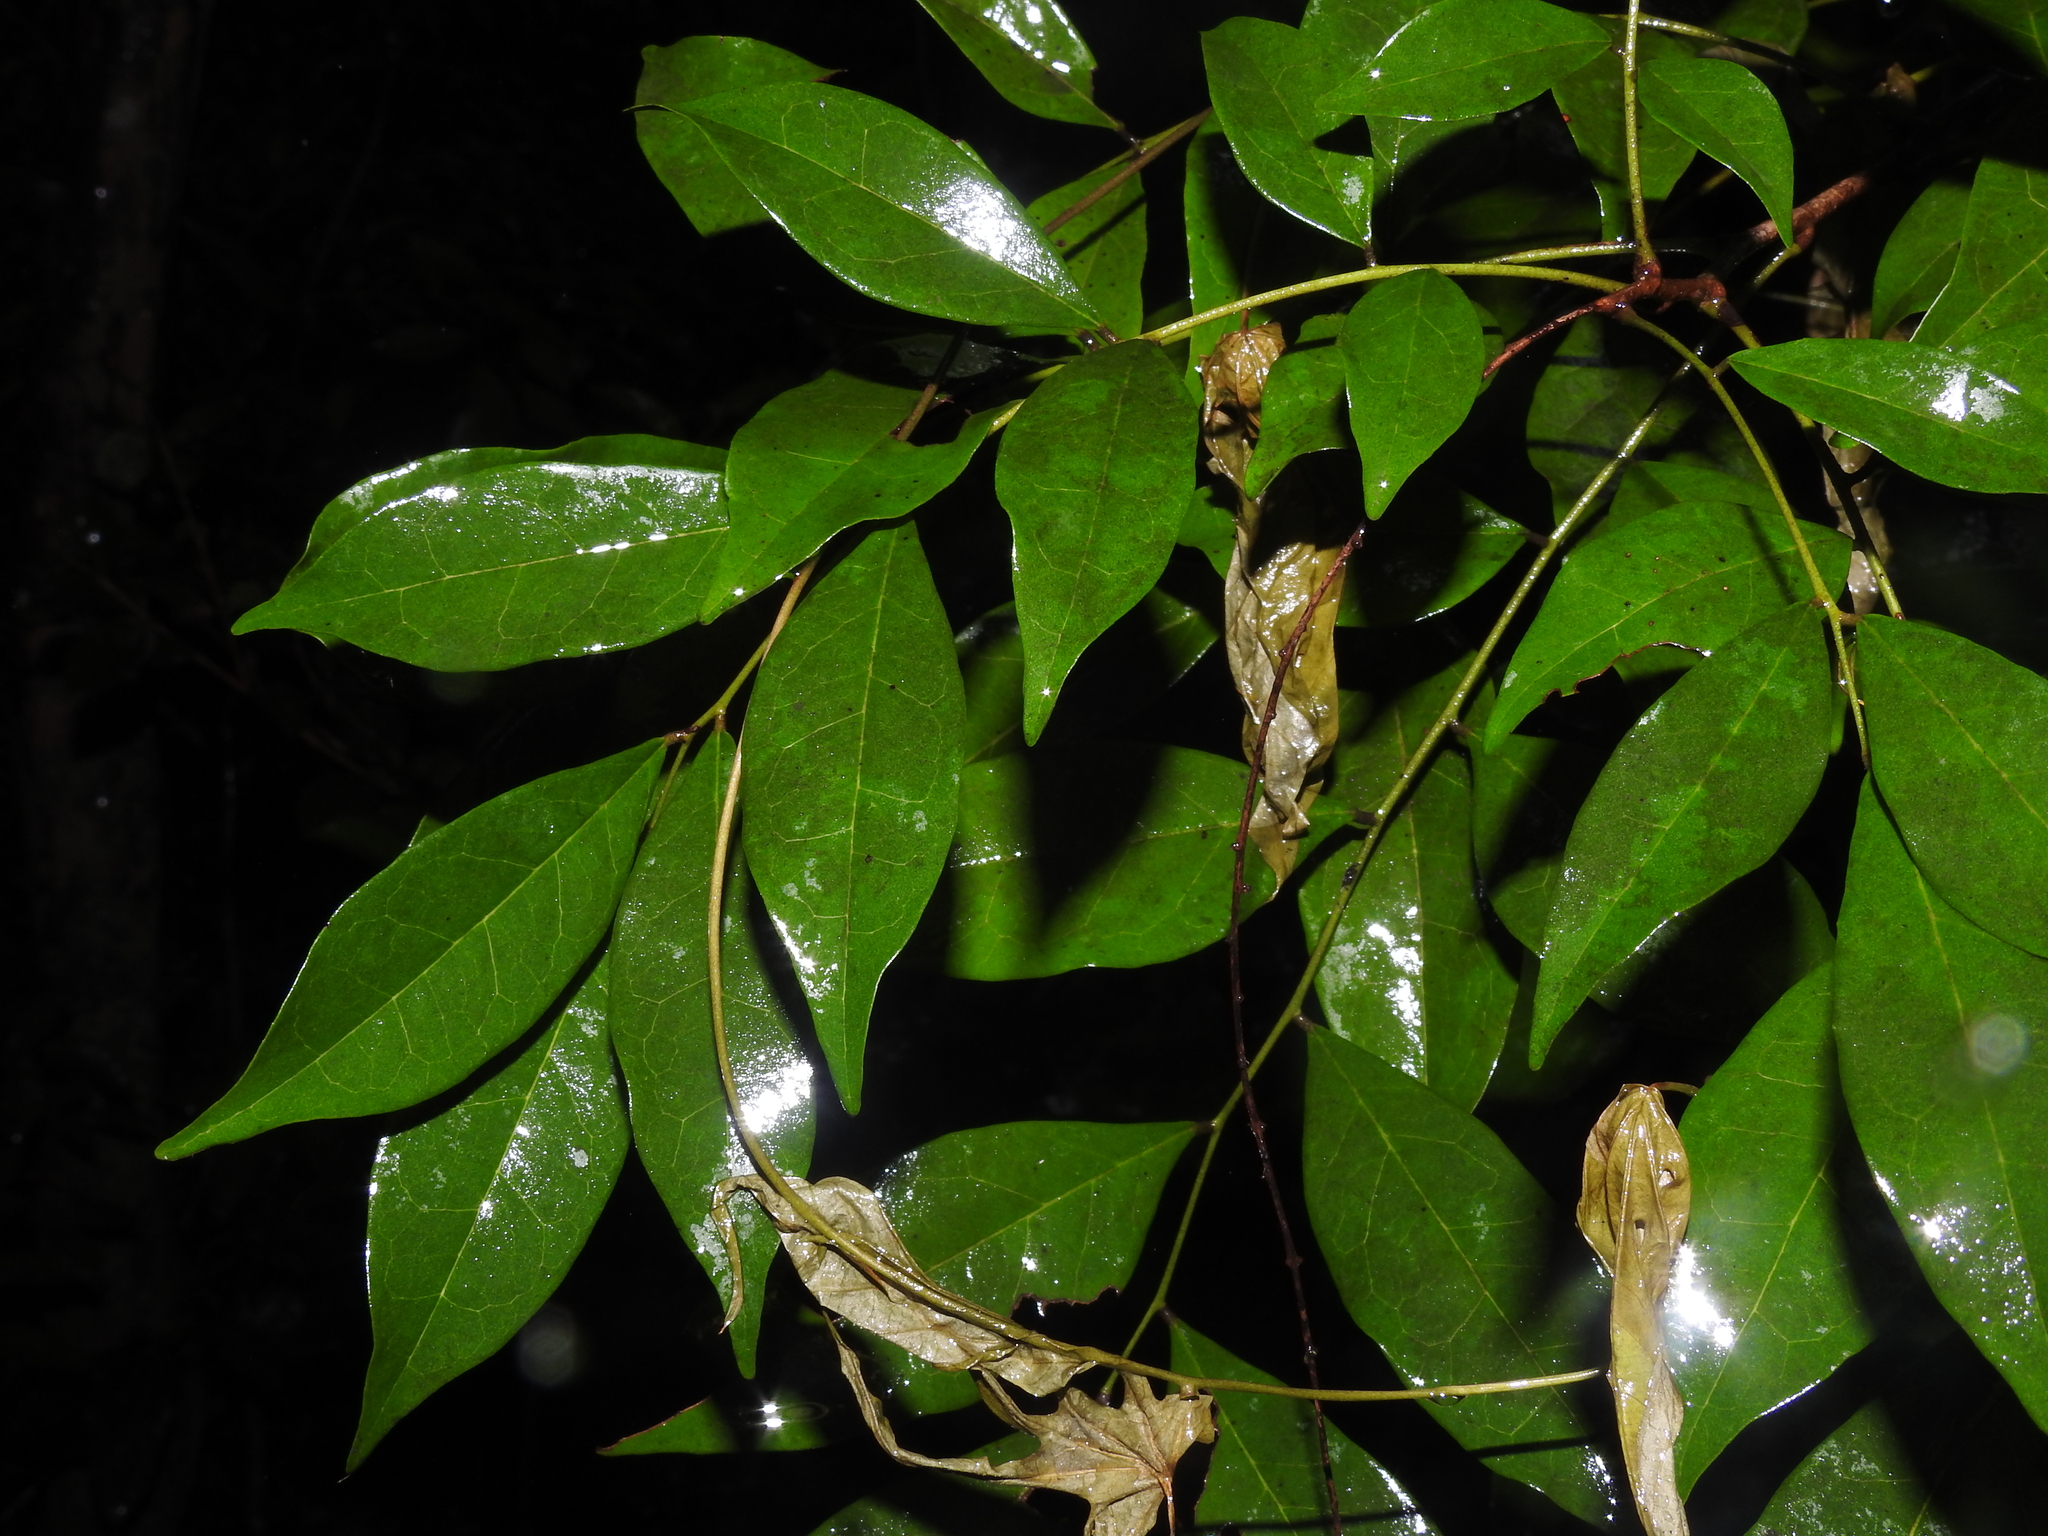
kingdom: Plantae
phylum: Tracheophyta
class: Magnoliopsida
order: Picramniales
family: Picramniaceae
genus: Picramnia
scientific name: Picramnia pentandra
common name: Florida bitterbush
